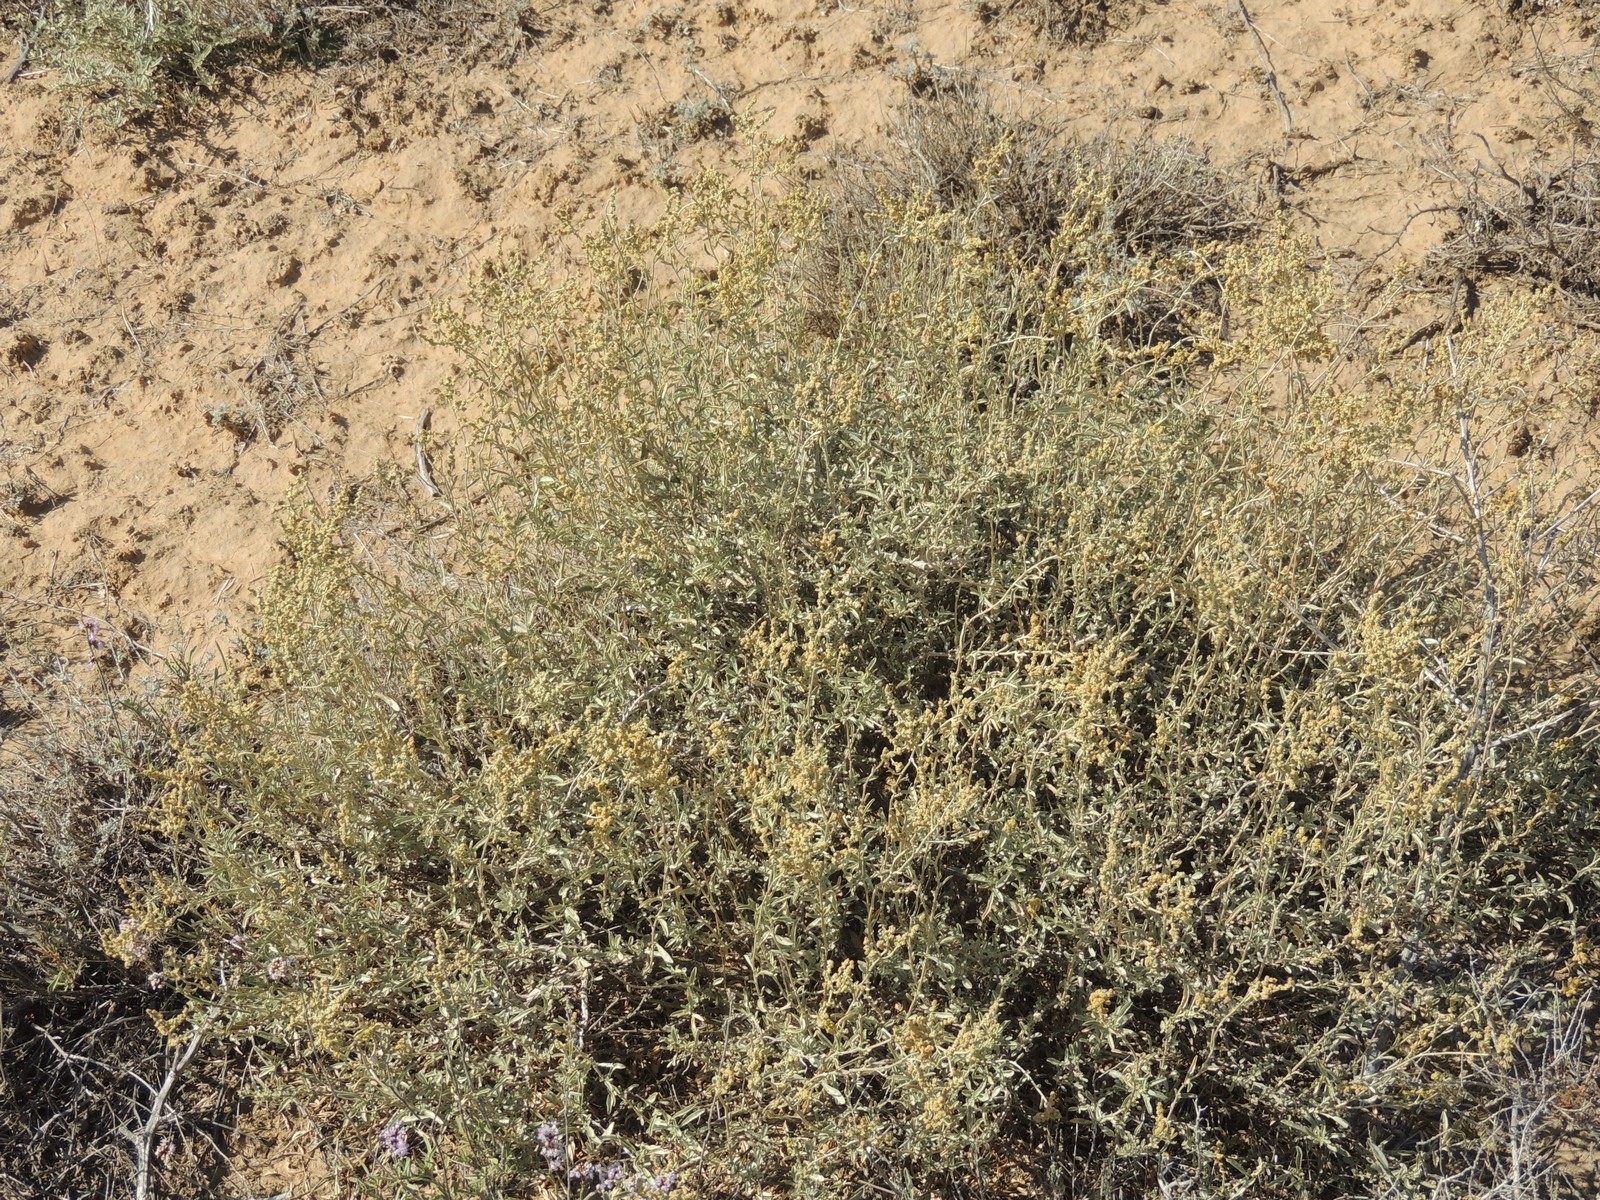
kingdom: Plantae
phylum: Tracheophyta
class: Magnoliopsida
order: Caryophyllales
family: Amaranthaceae
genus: Atriplex
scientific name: Atriplex cana
